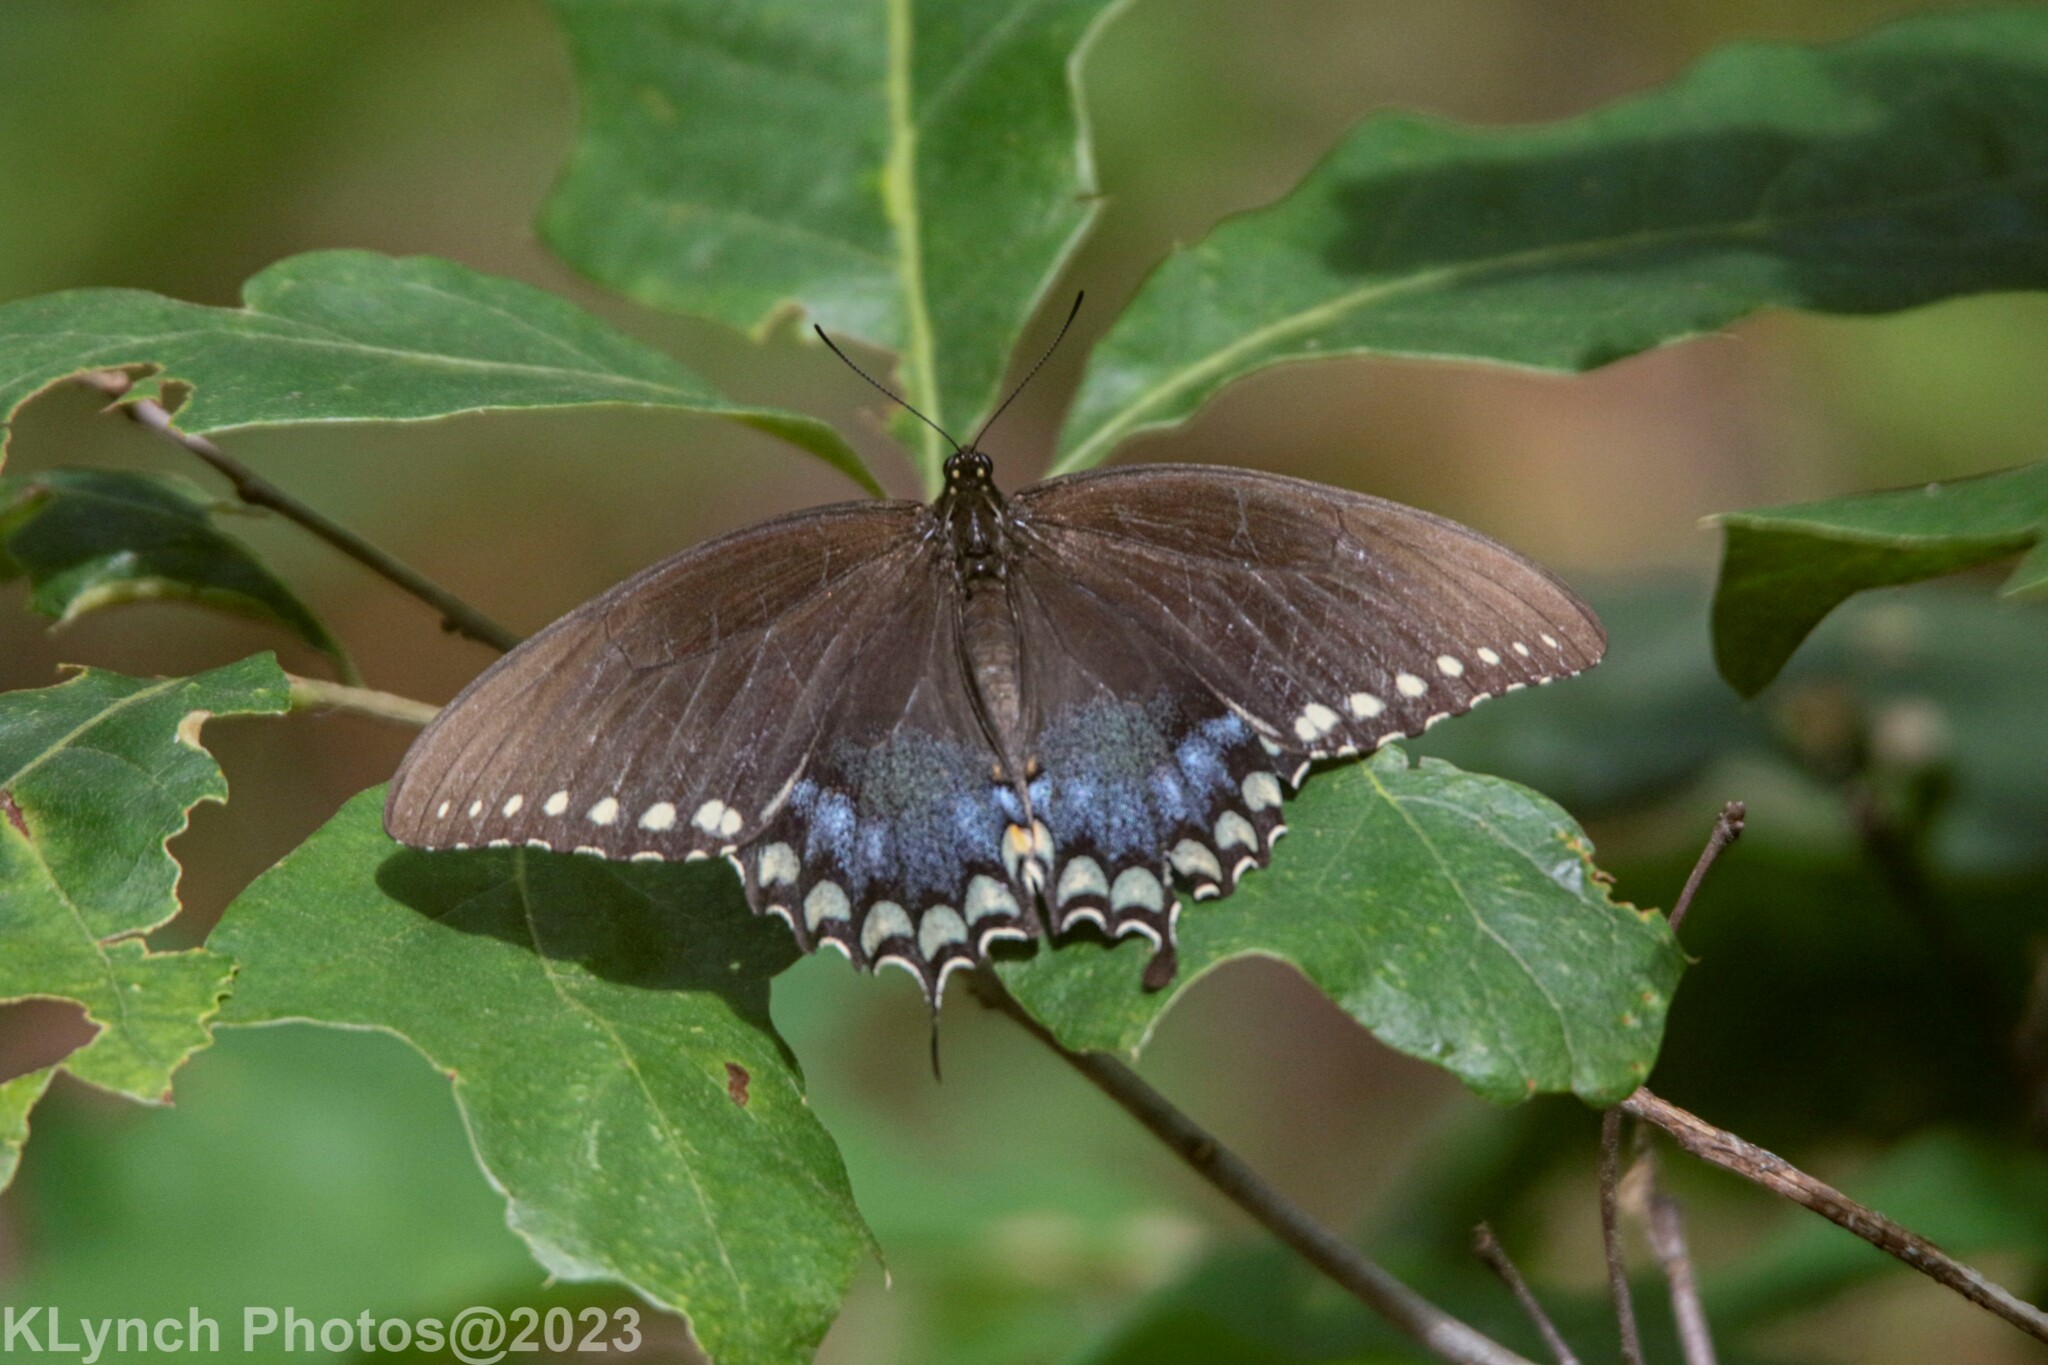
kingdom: Animalia
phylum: Arthropoda
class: Insecta
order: Lepidoptera
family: Papilionidae
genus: Papilio
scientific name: Papilio troilus
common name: Spicebush swallowtail
